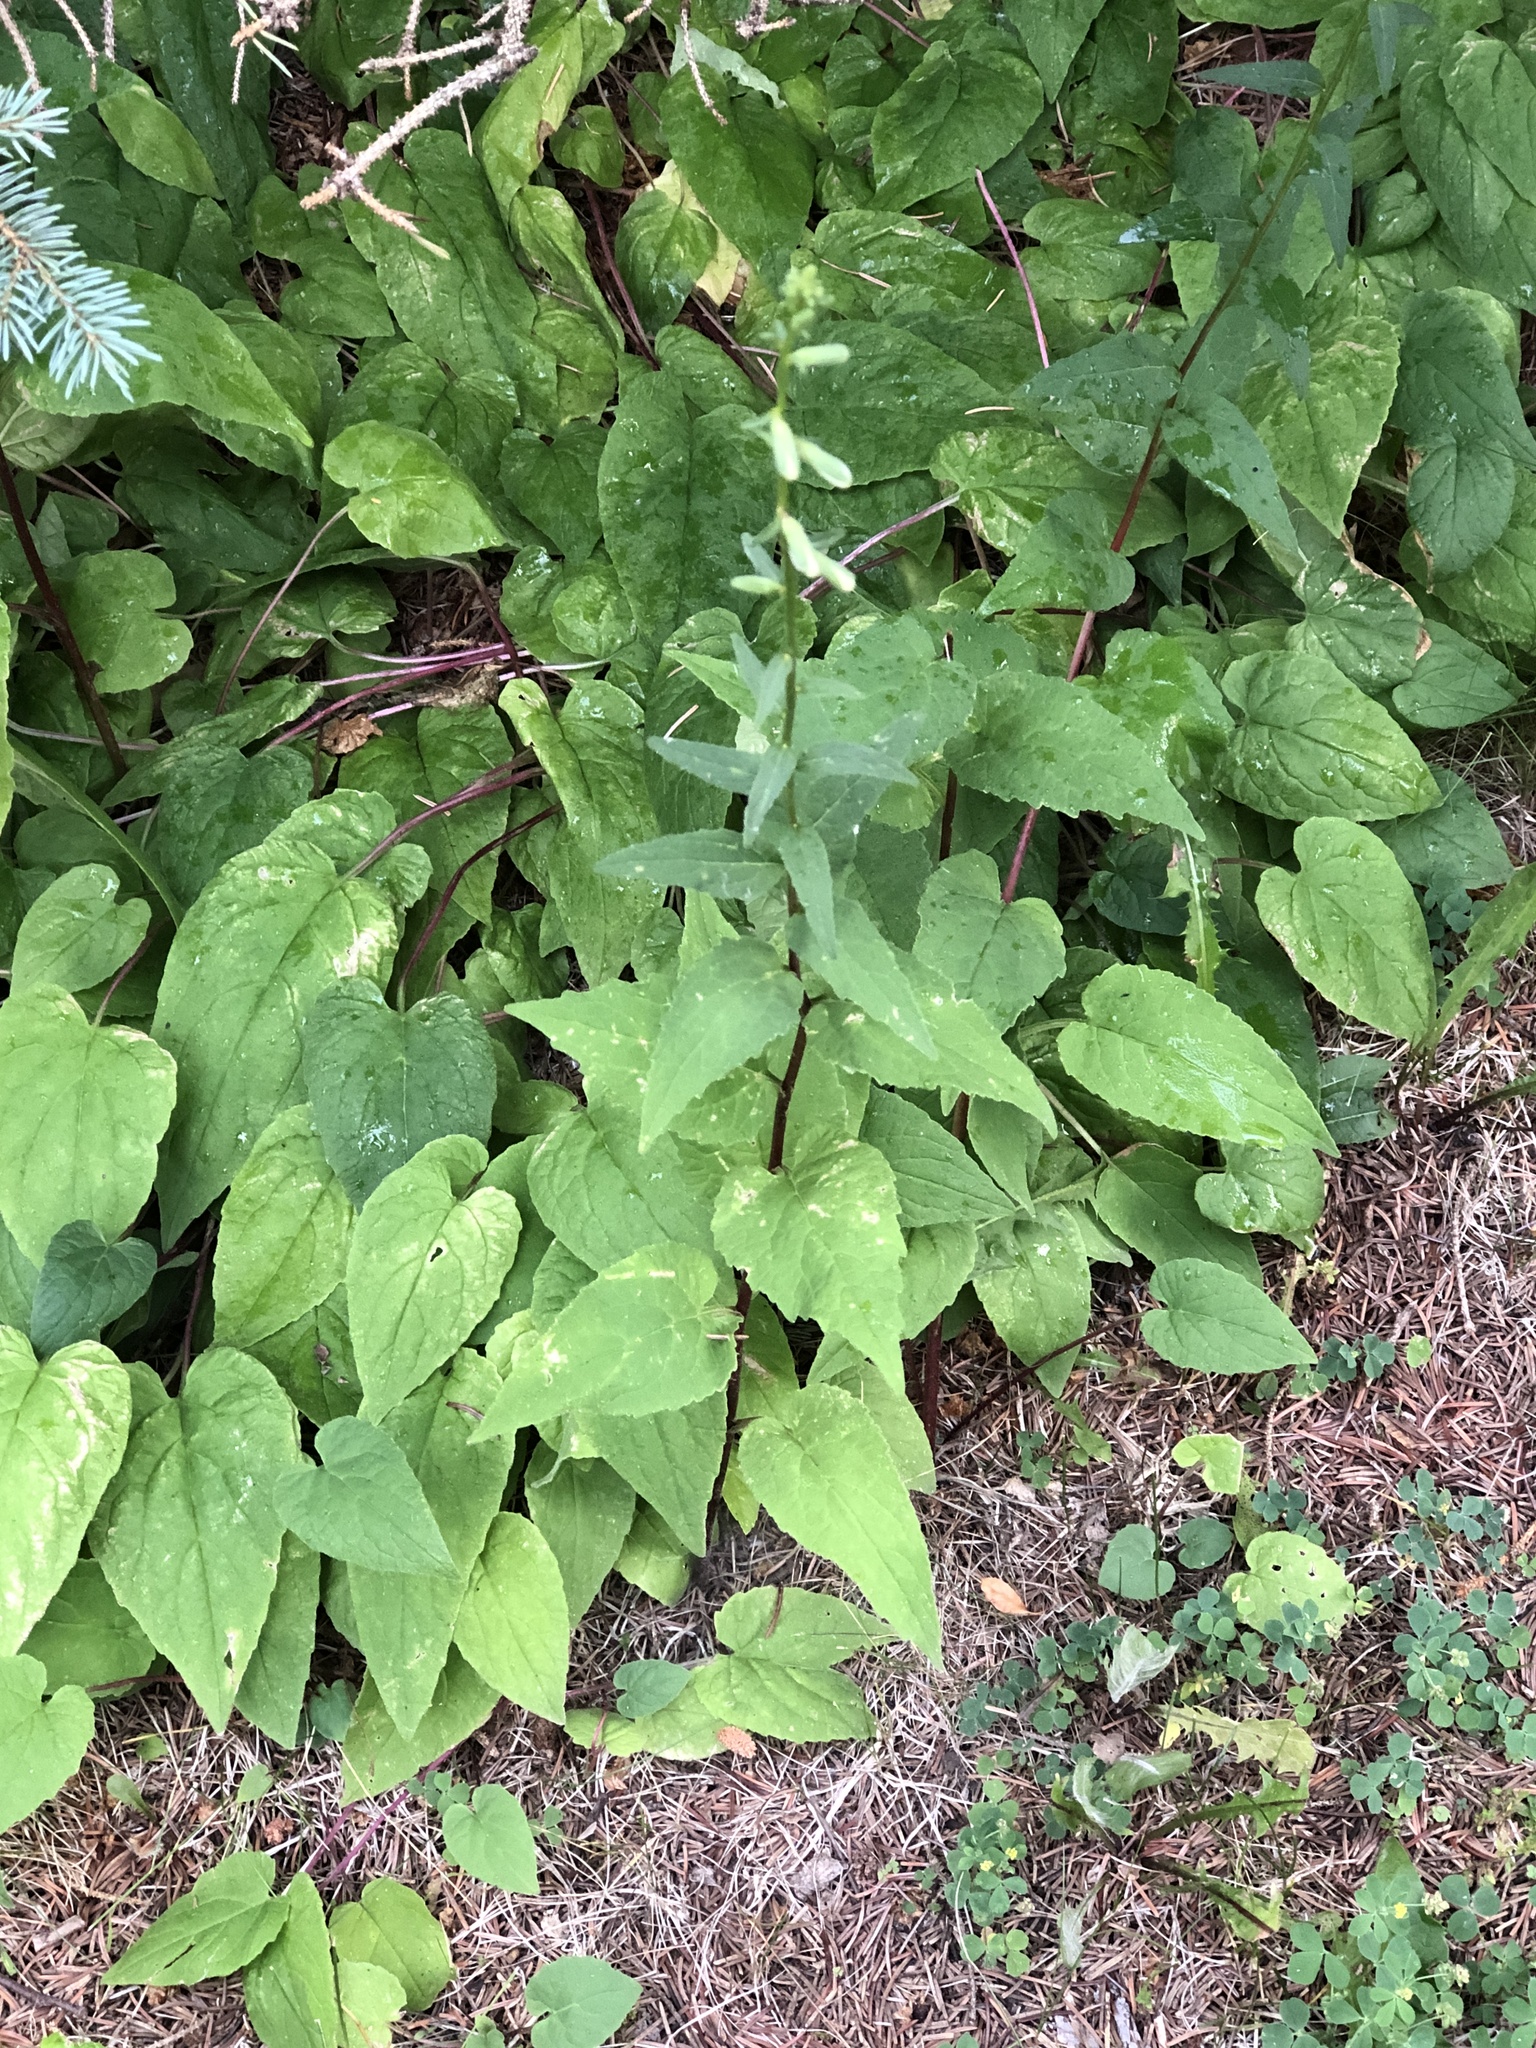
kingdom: Plantae
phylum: Tracheophyta
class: Magnoliopsida
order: Asterales
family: Campanulaceae
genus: Campanula
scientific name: Campanula rapunculoides
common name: Creeping bellflower
